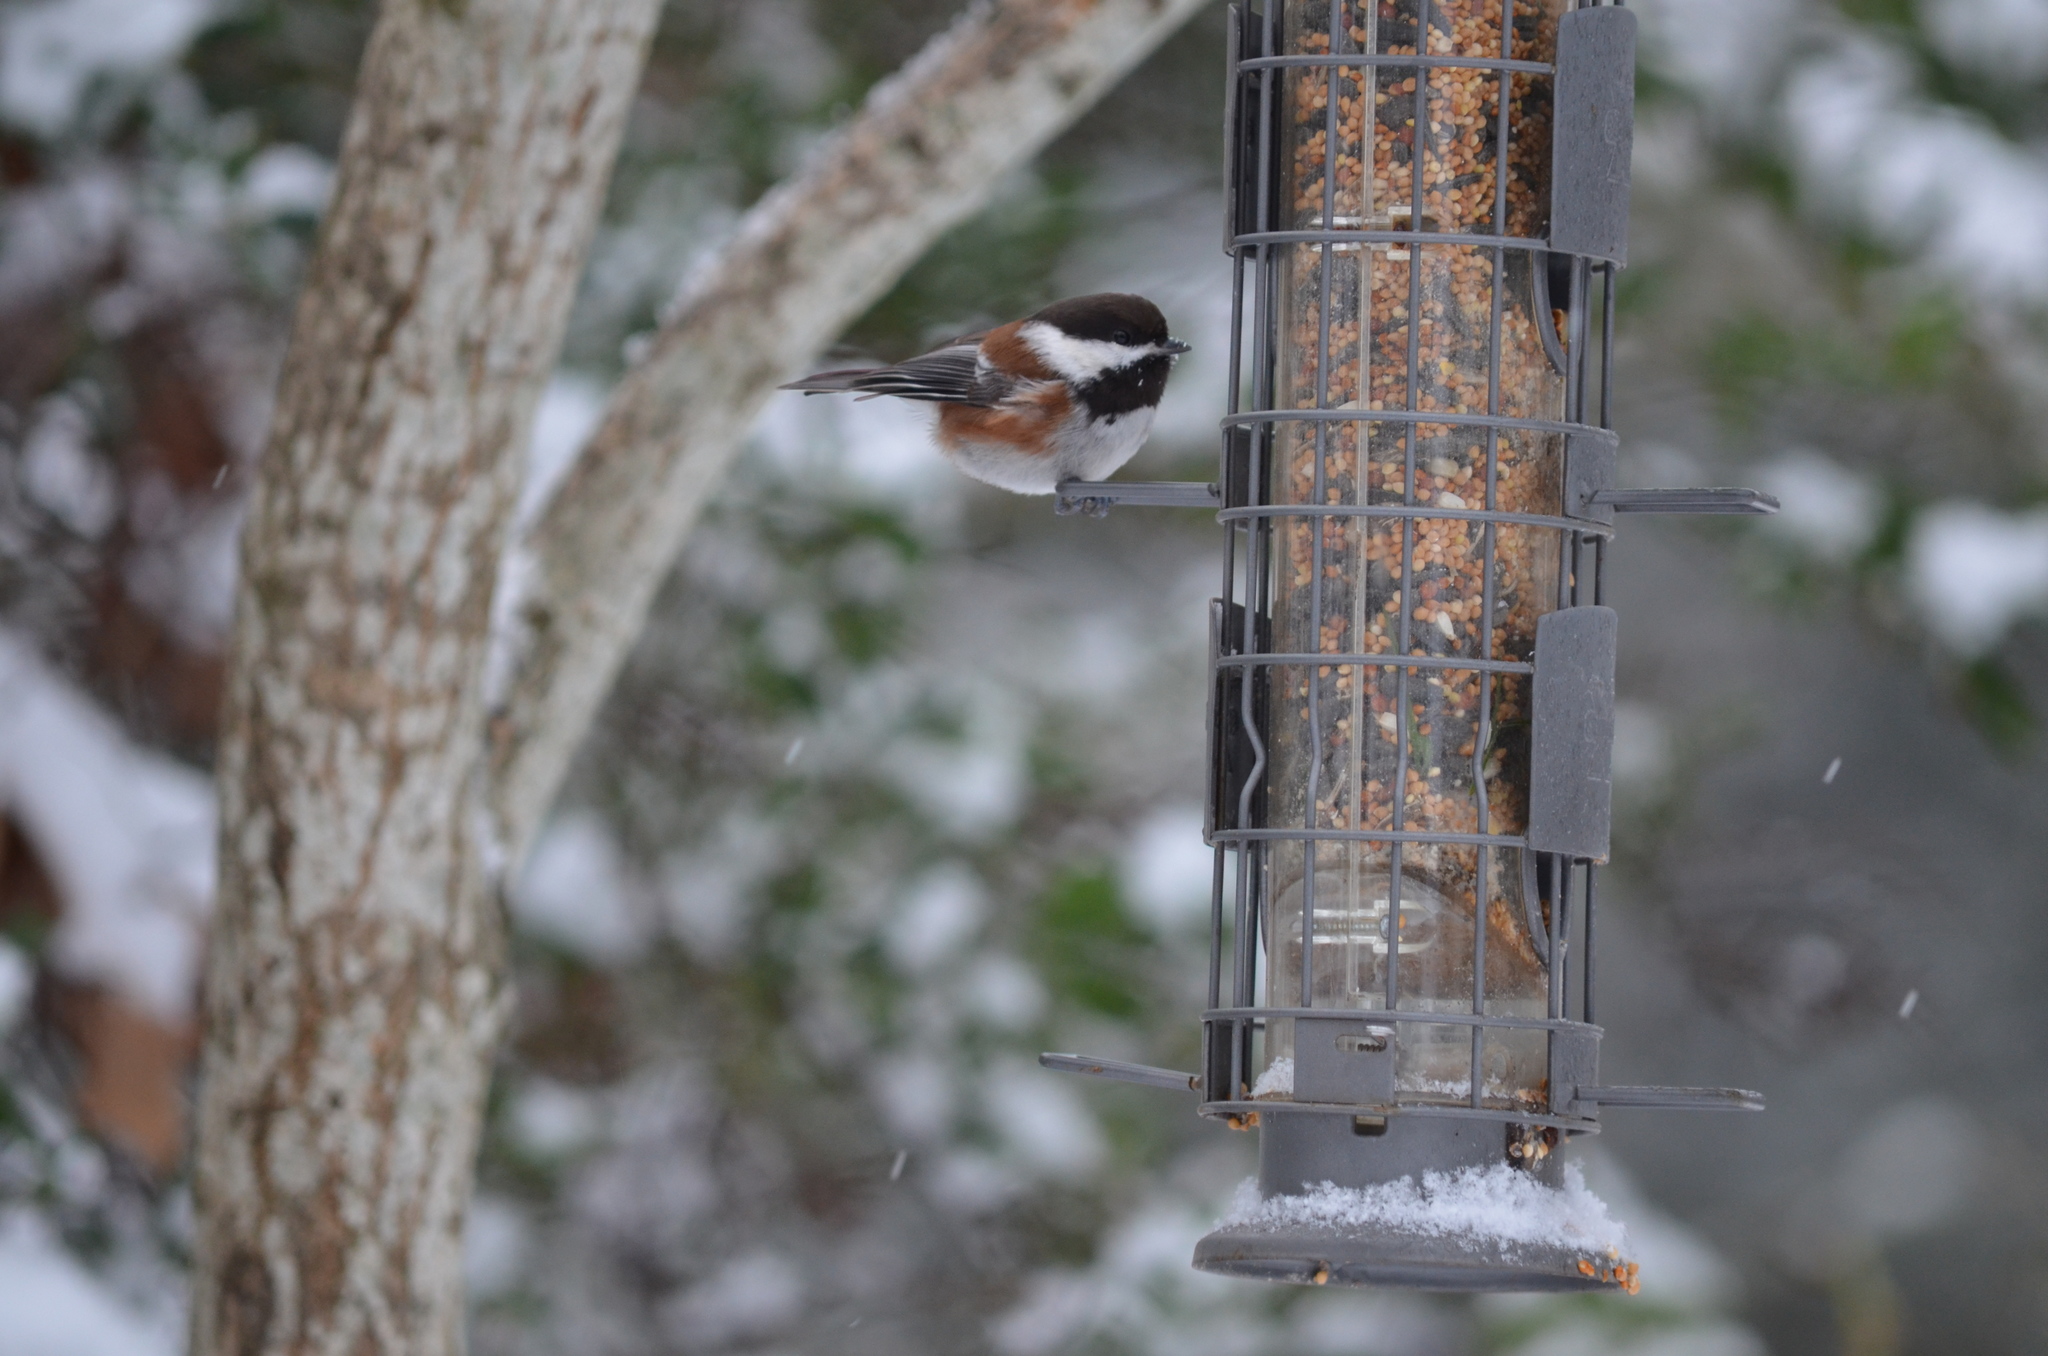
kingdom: Animalia
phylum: Chordata
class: Aves
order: Passeriformes
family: Paridae
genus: Poecile
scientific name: Poecile rufescens
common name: Chestnut-backed chickadee
